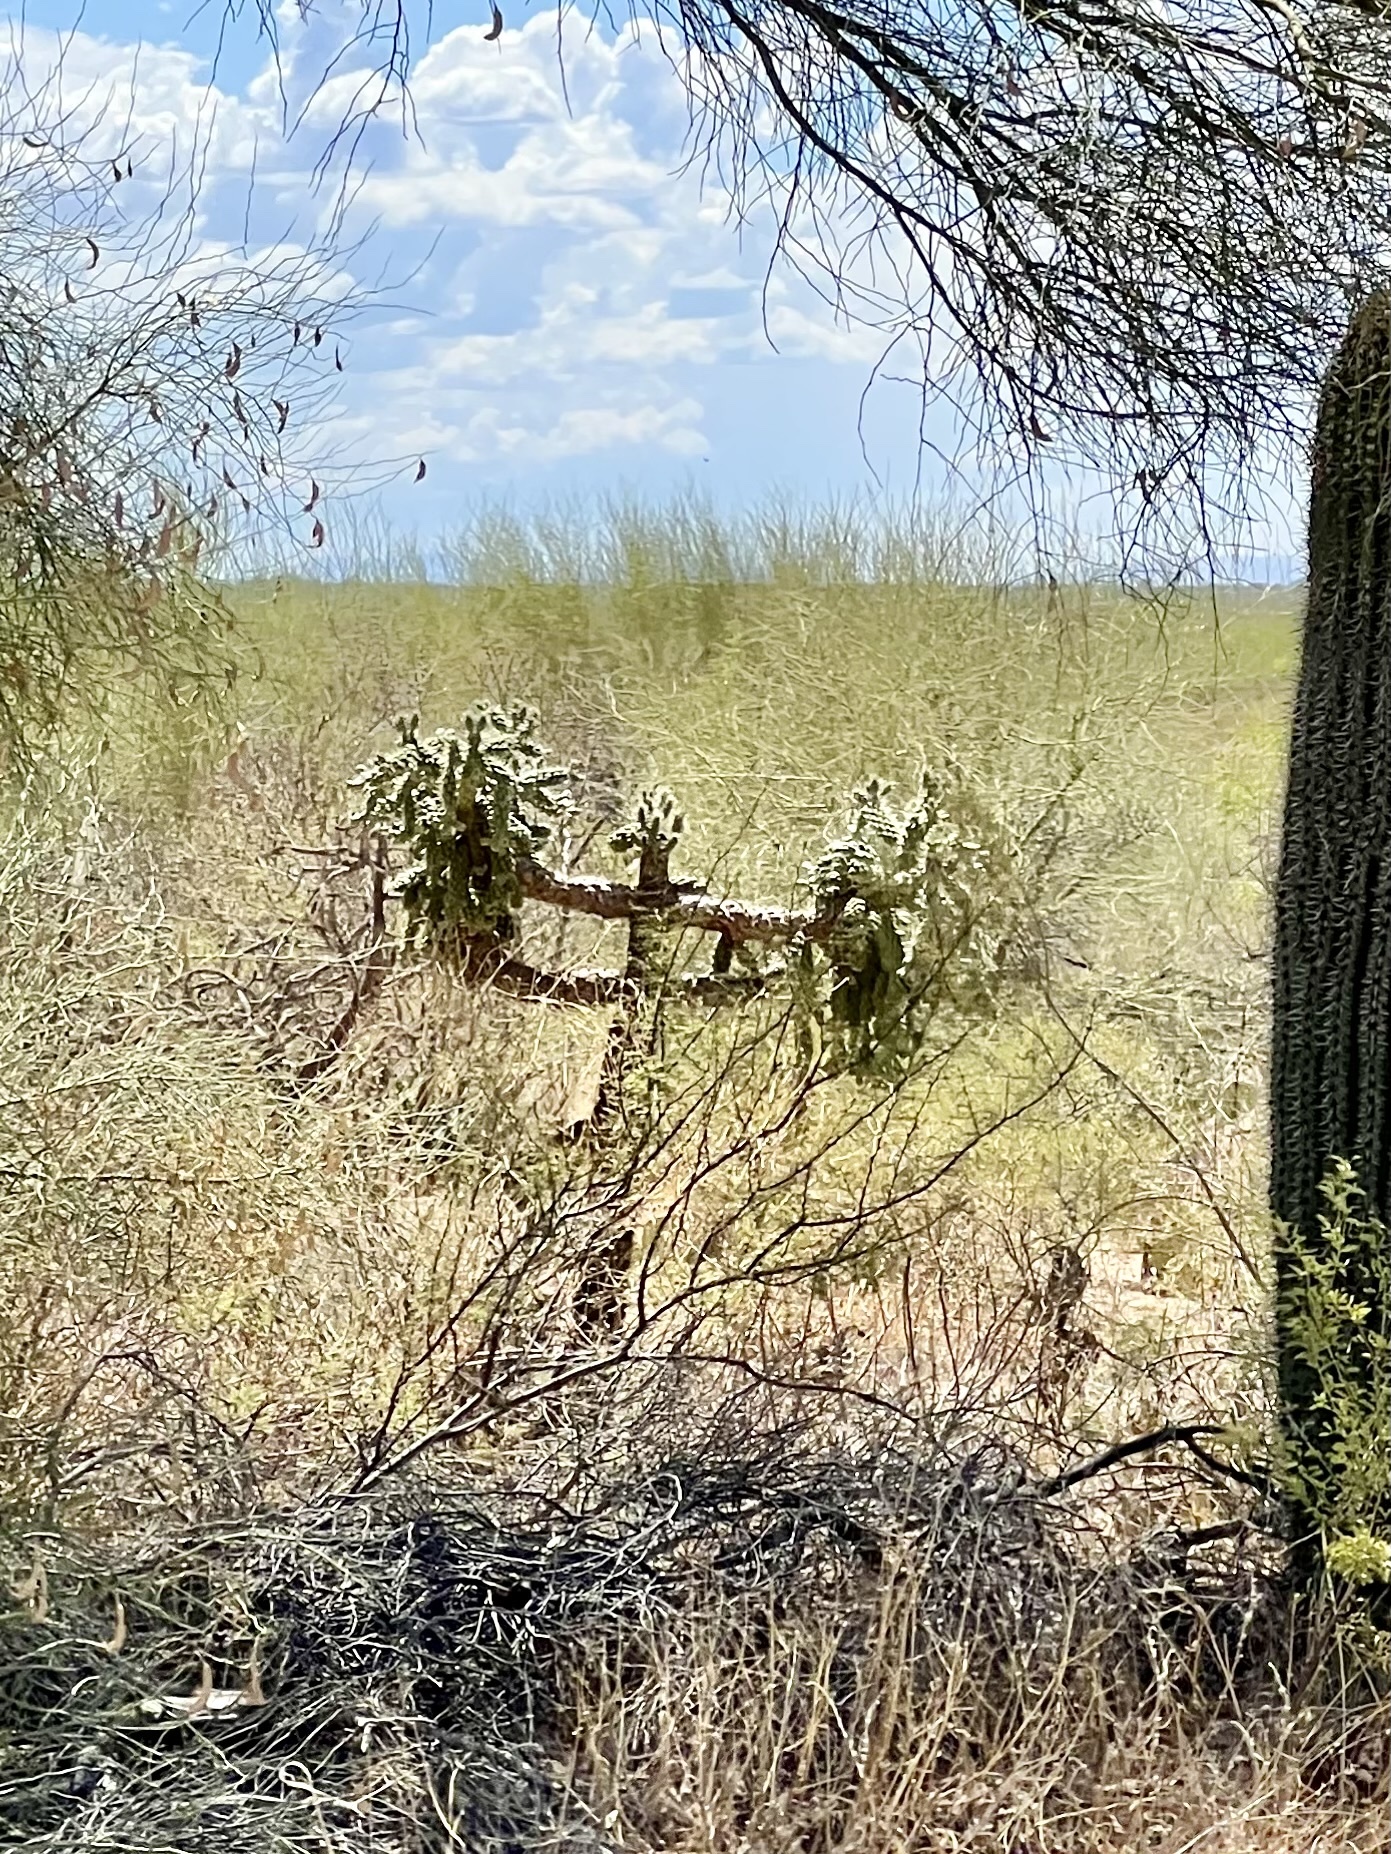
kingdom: Plantae
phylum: Tracheophyta
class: Magnoliopsida
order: Caryophyllales
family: Cactaceae
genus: Cylindropuntia
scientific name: Cylindropuntia fulgida
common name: Jumping cholla
